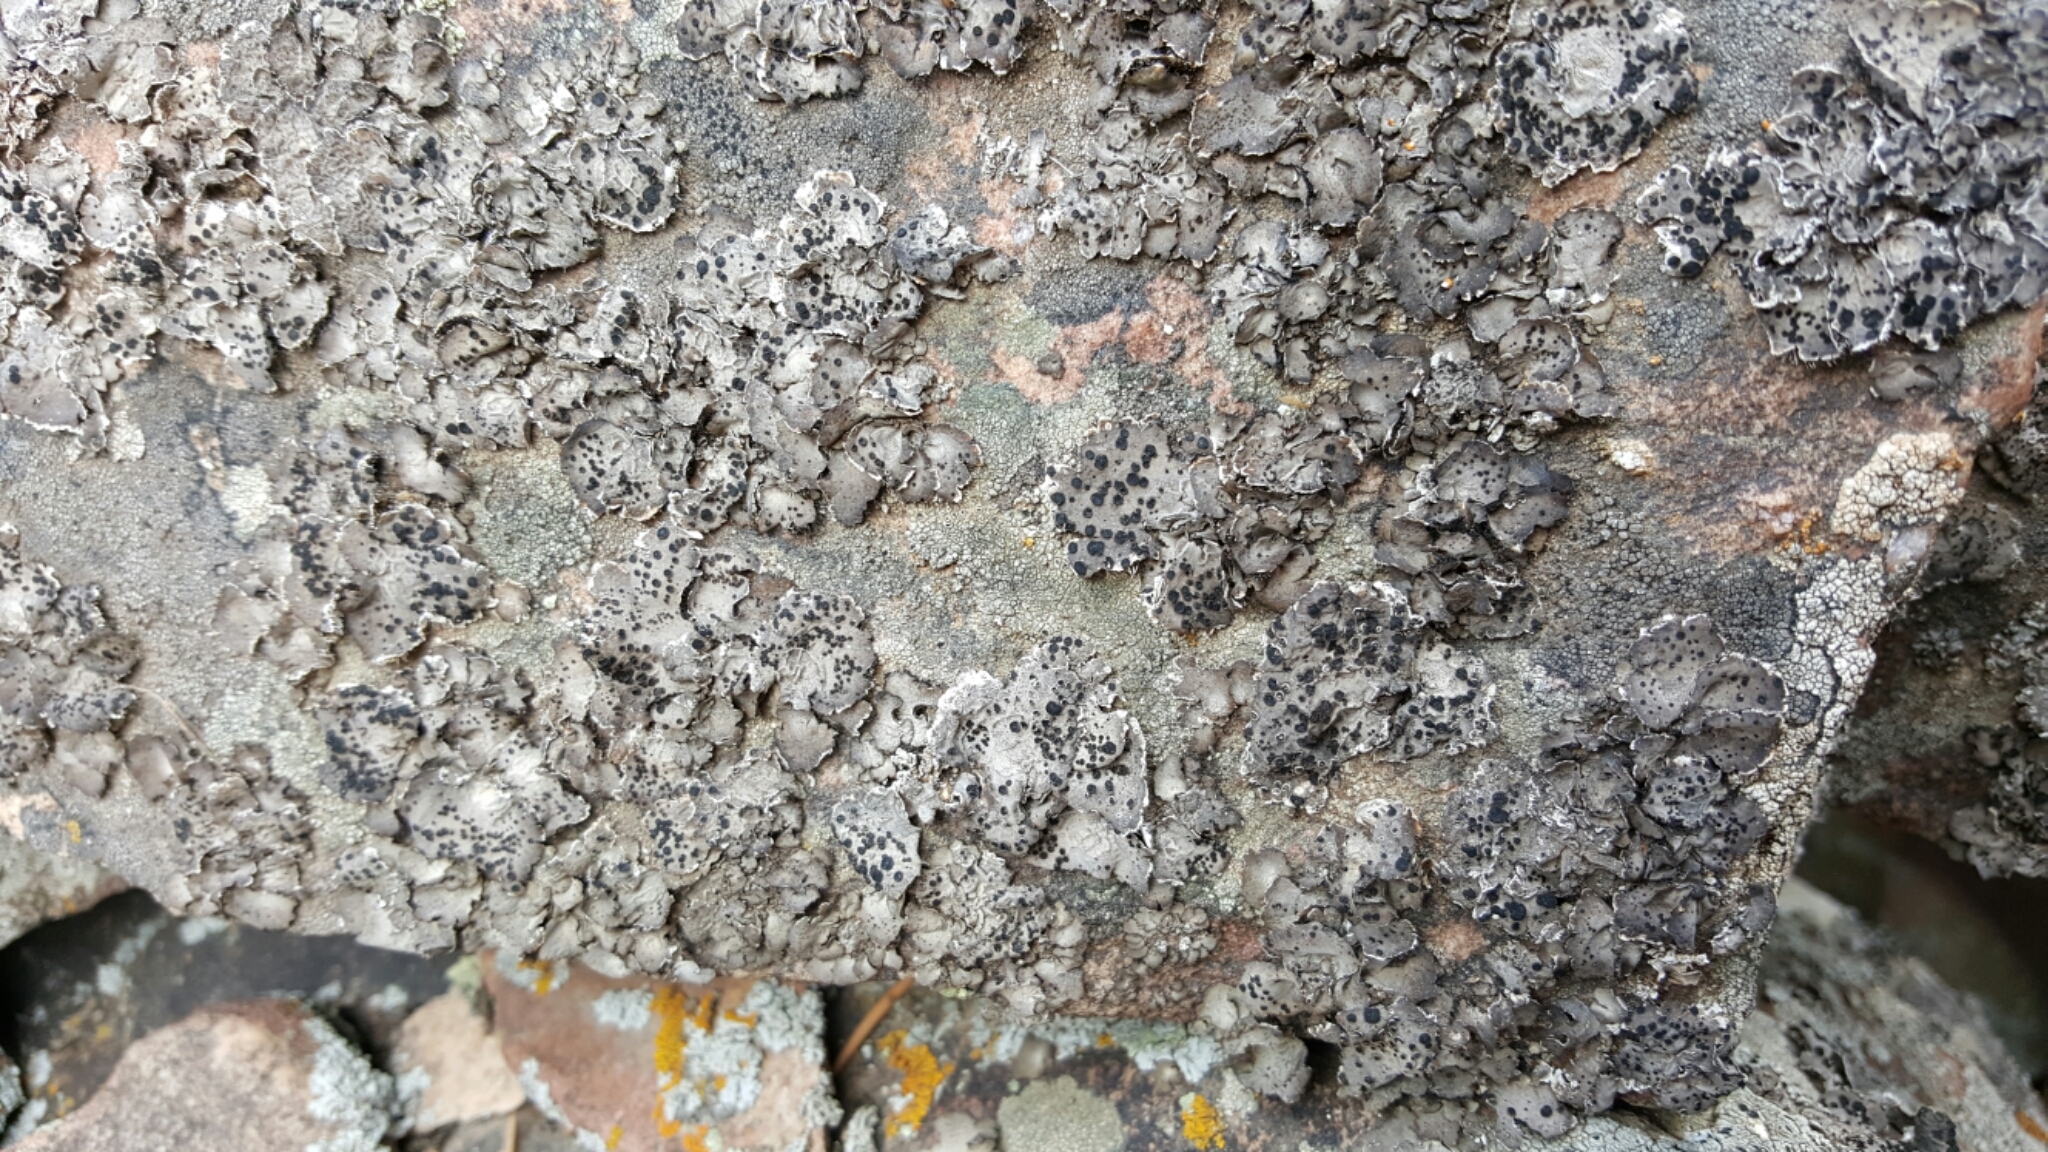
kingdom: Fungi
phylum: Ascomycota
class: Lecanoromycetes
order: Umbilicariales
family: Umbilicariaceae
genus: Umbilicaria
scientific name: Umbilicaria virginis
